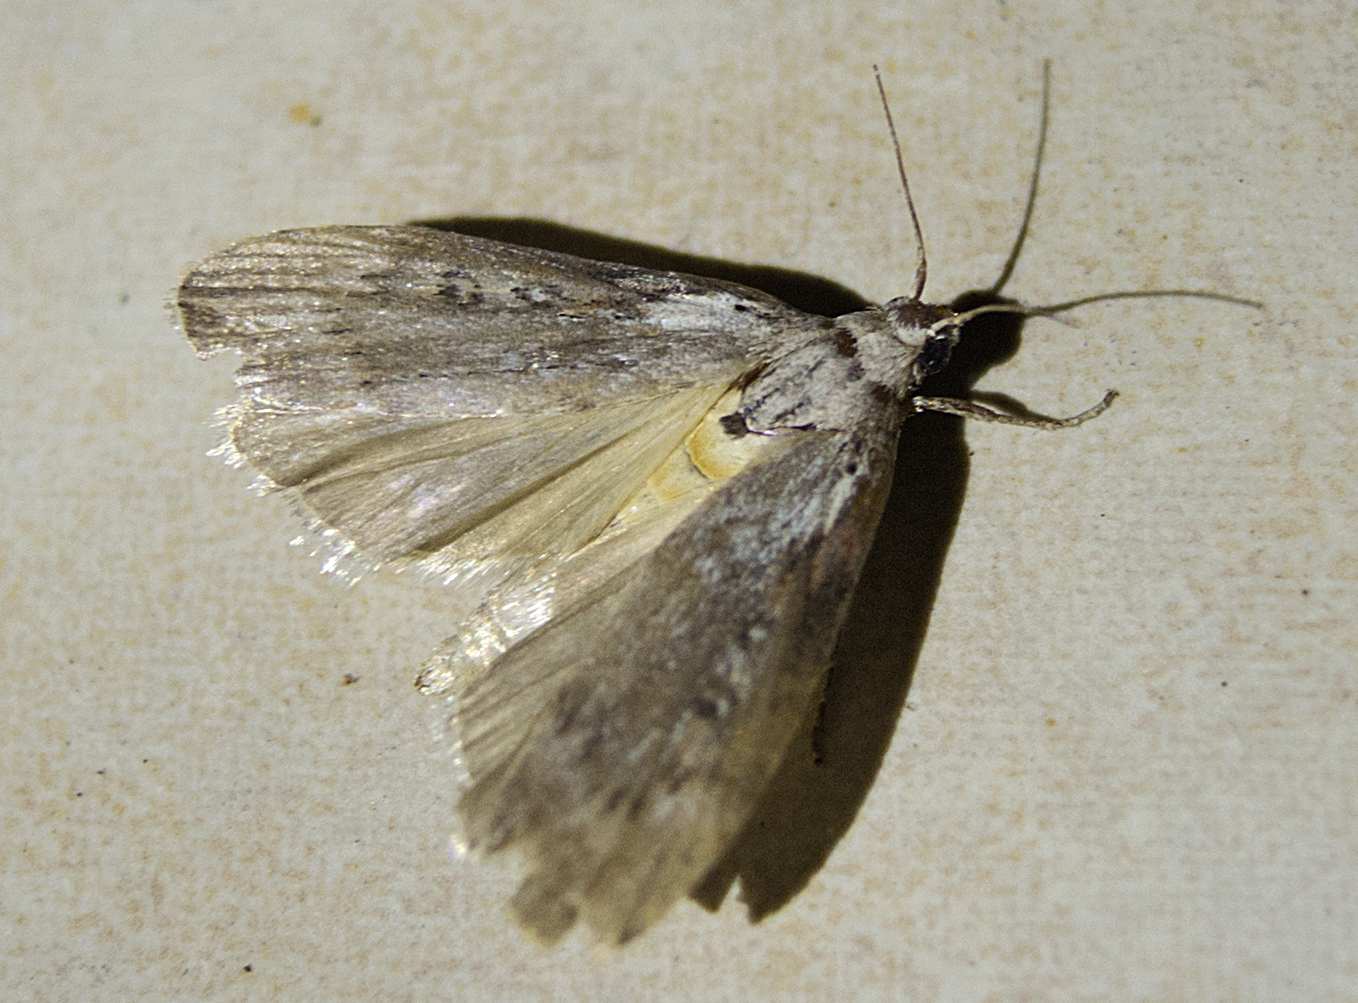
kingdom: Animalia
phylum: Arthropoda
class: Insecta
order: Lepidoptera
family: Pyralidae
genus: Lamoria
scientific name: Lamoria anella
